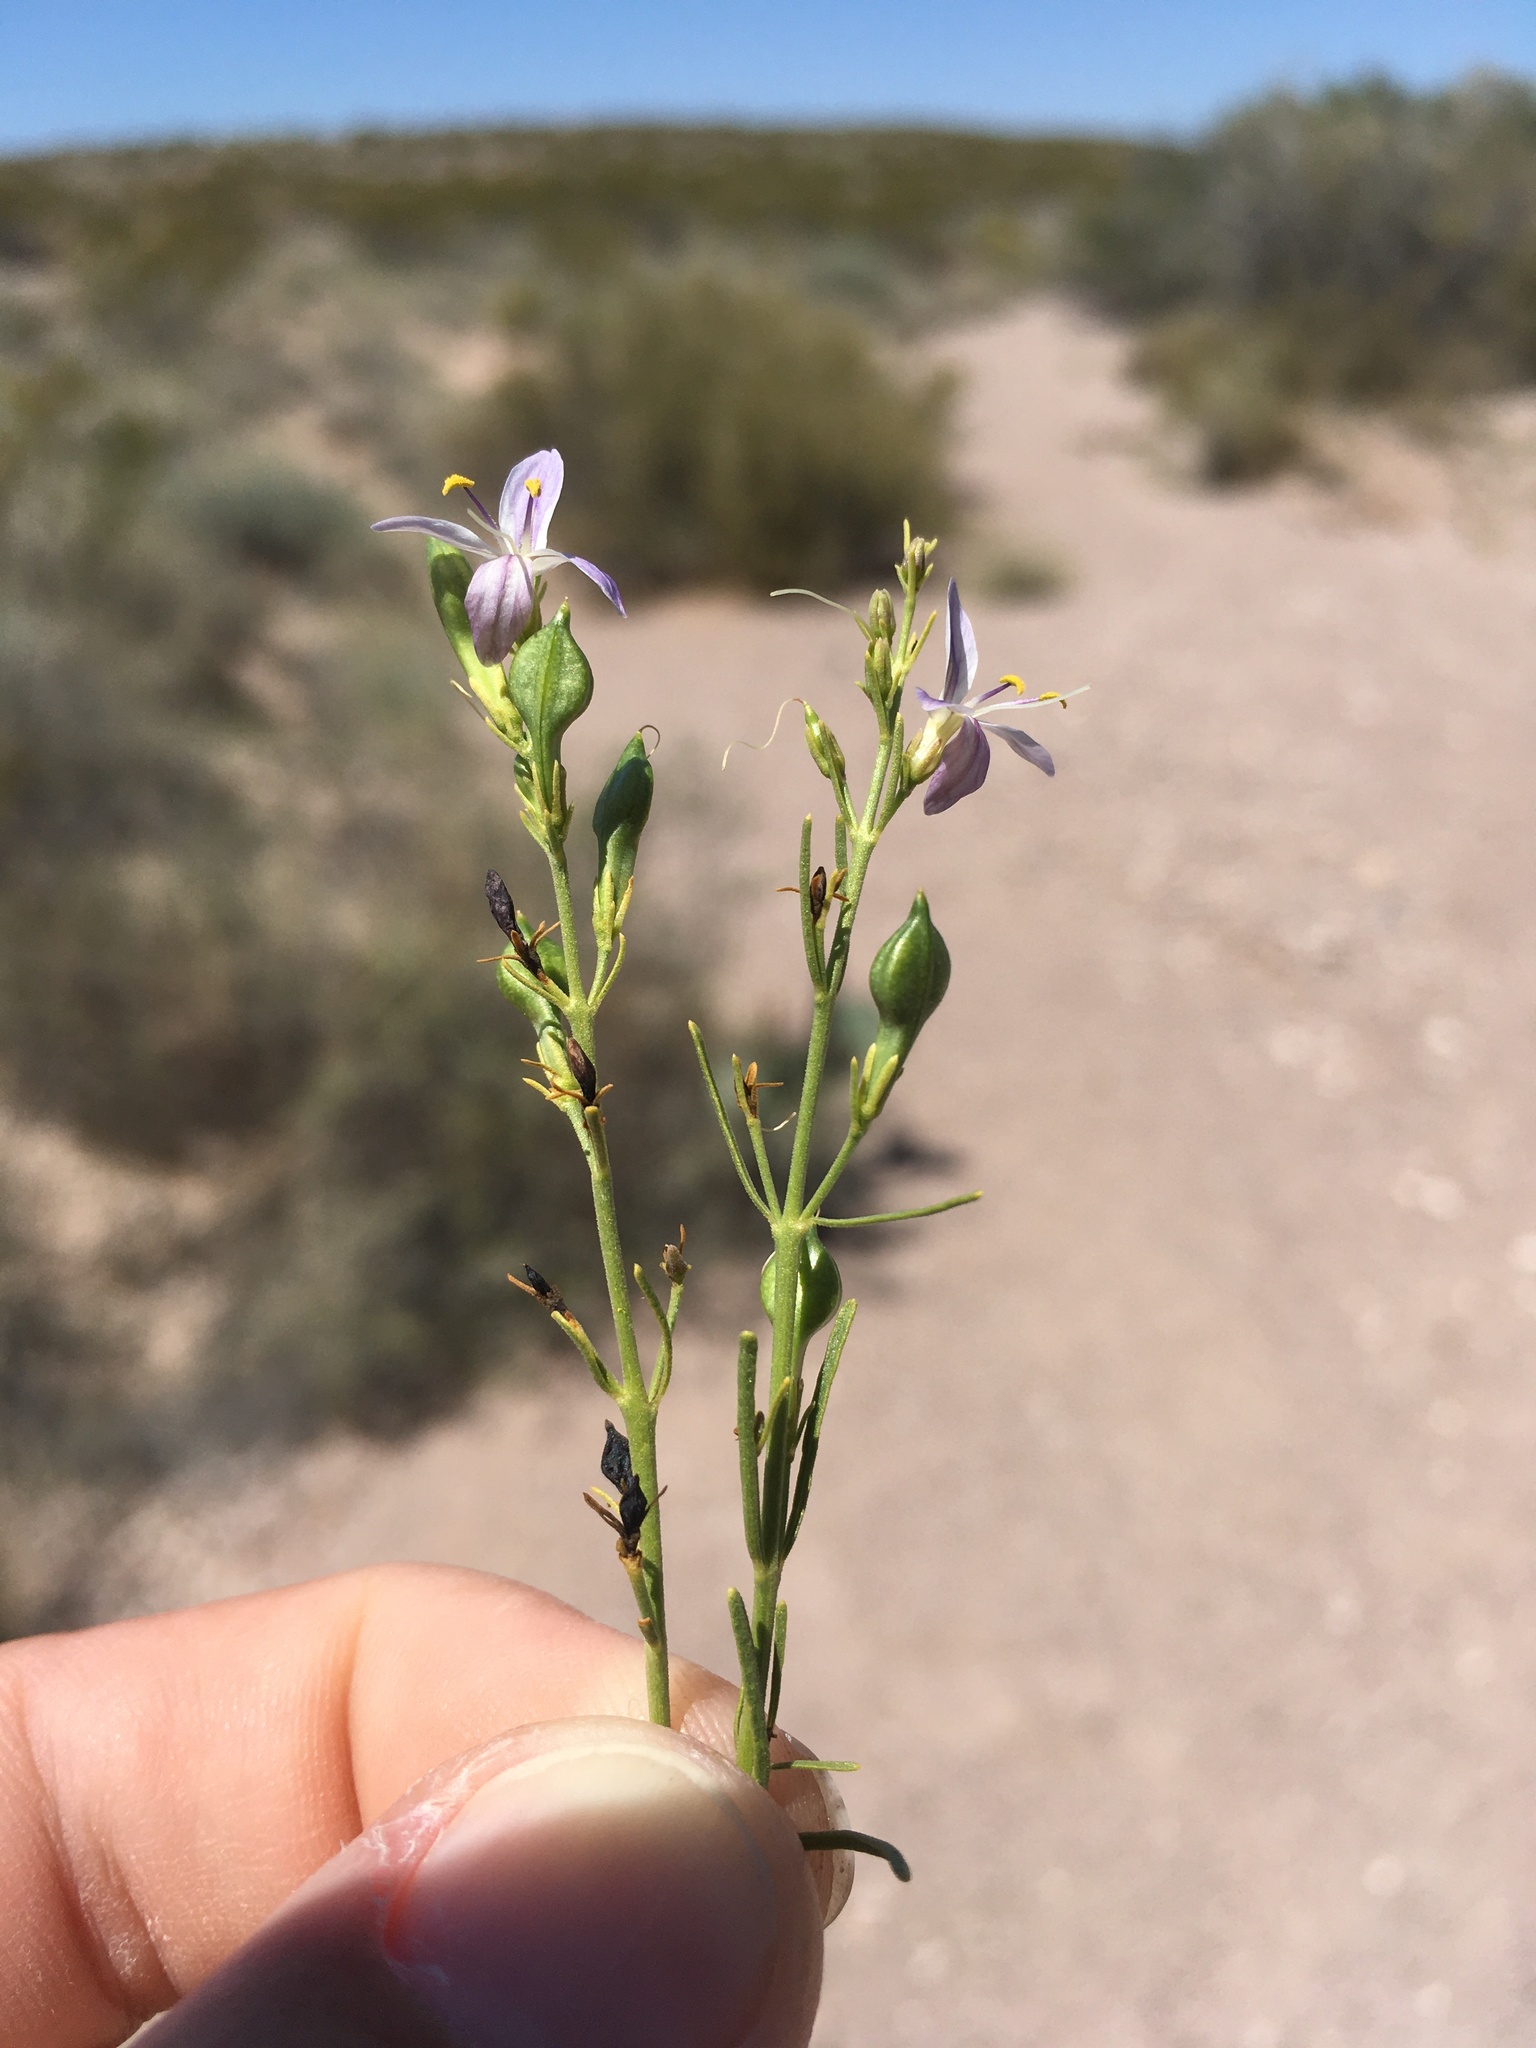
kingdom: Plantae
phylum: Tracheophyta
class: Magnoliopsida
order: Lamiales
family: Acanthaceae
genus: Carlowrightia
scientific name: Carlowrightia linearifolia
